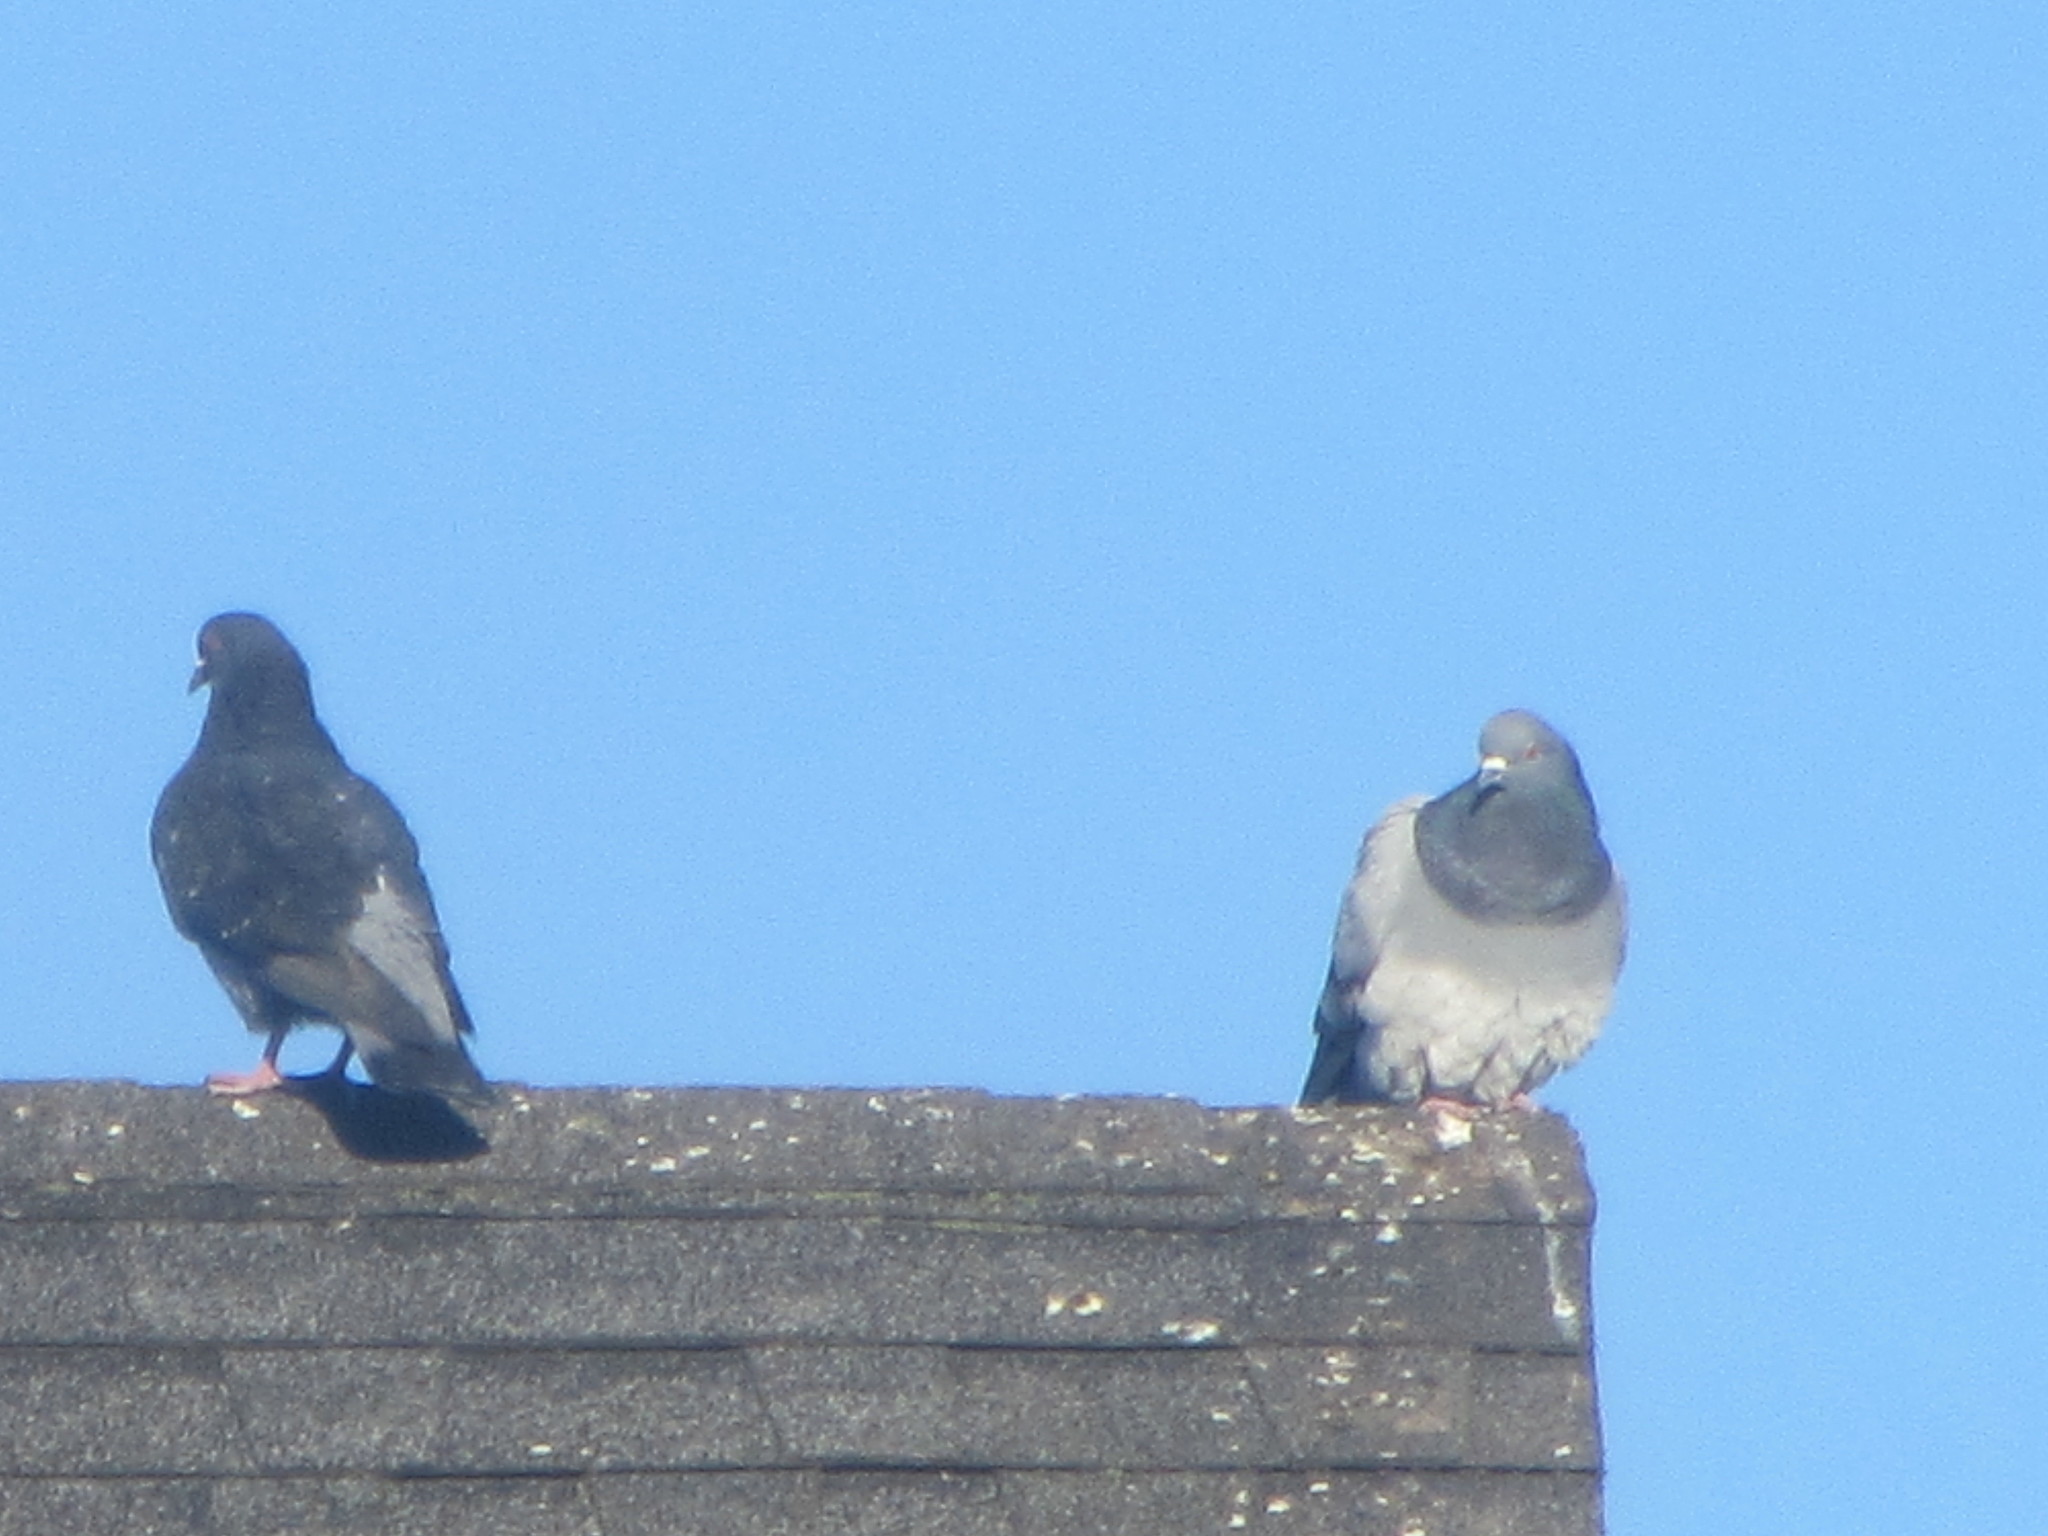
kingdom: Animalia
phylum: Chordata
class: Aves
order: Columbiformes
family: Columbidae
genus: Columba
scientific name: Columba livia
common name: Rock pigeon
